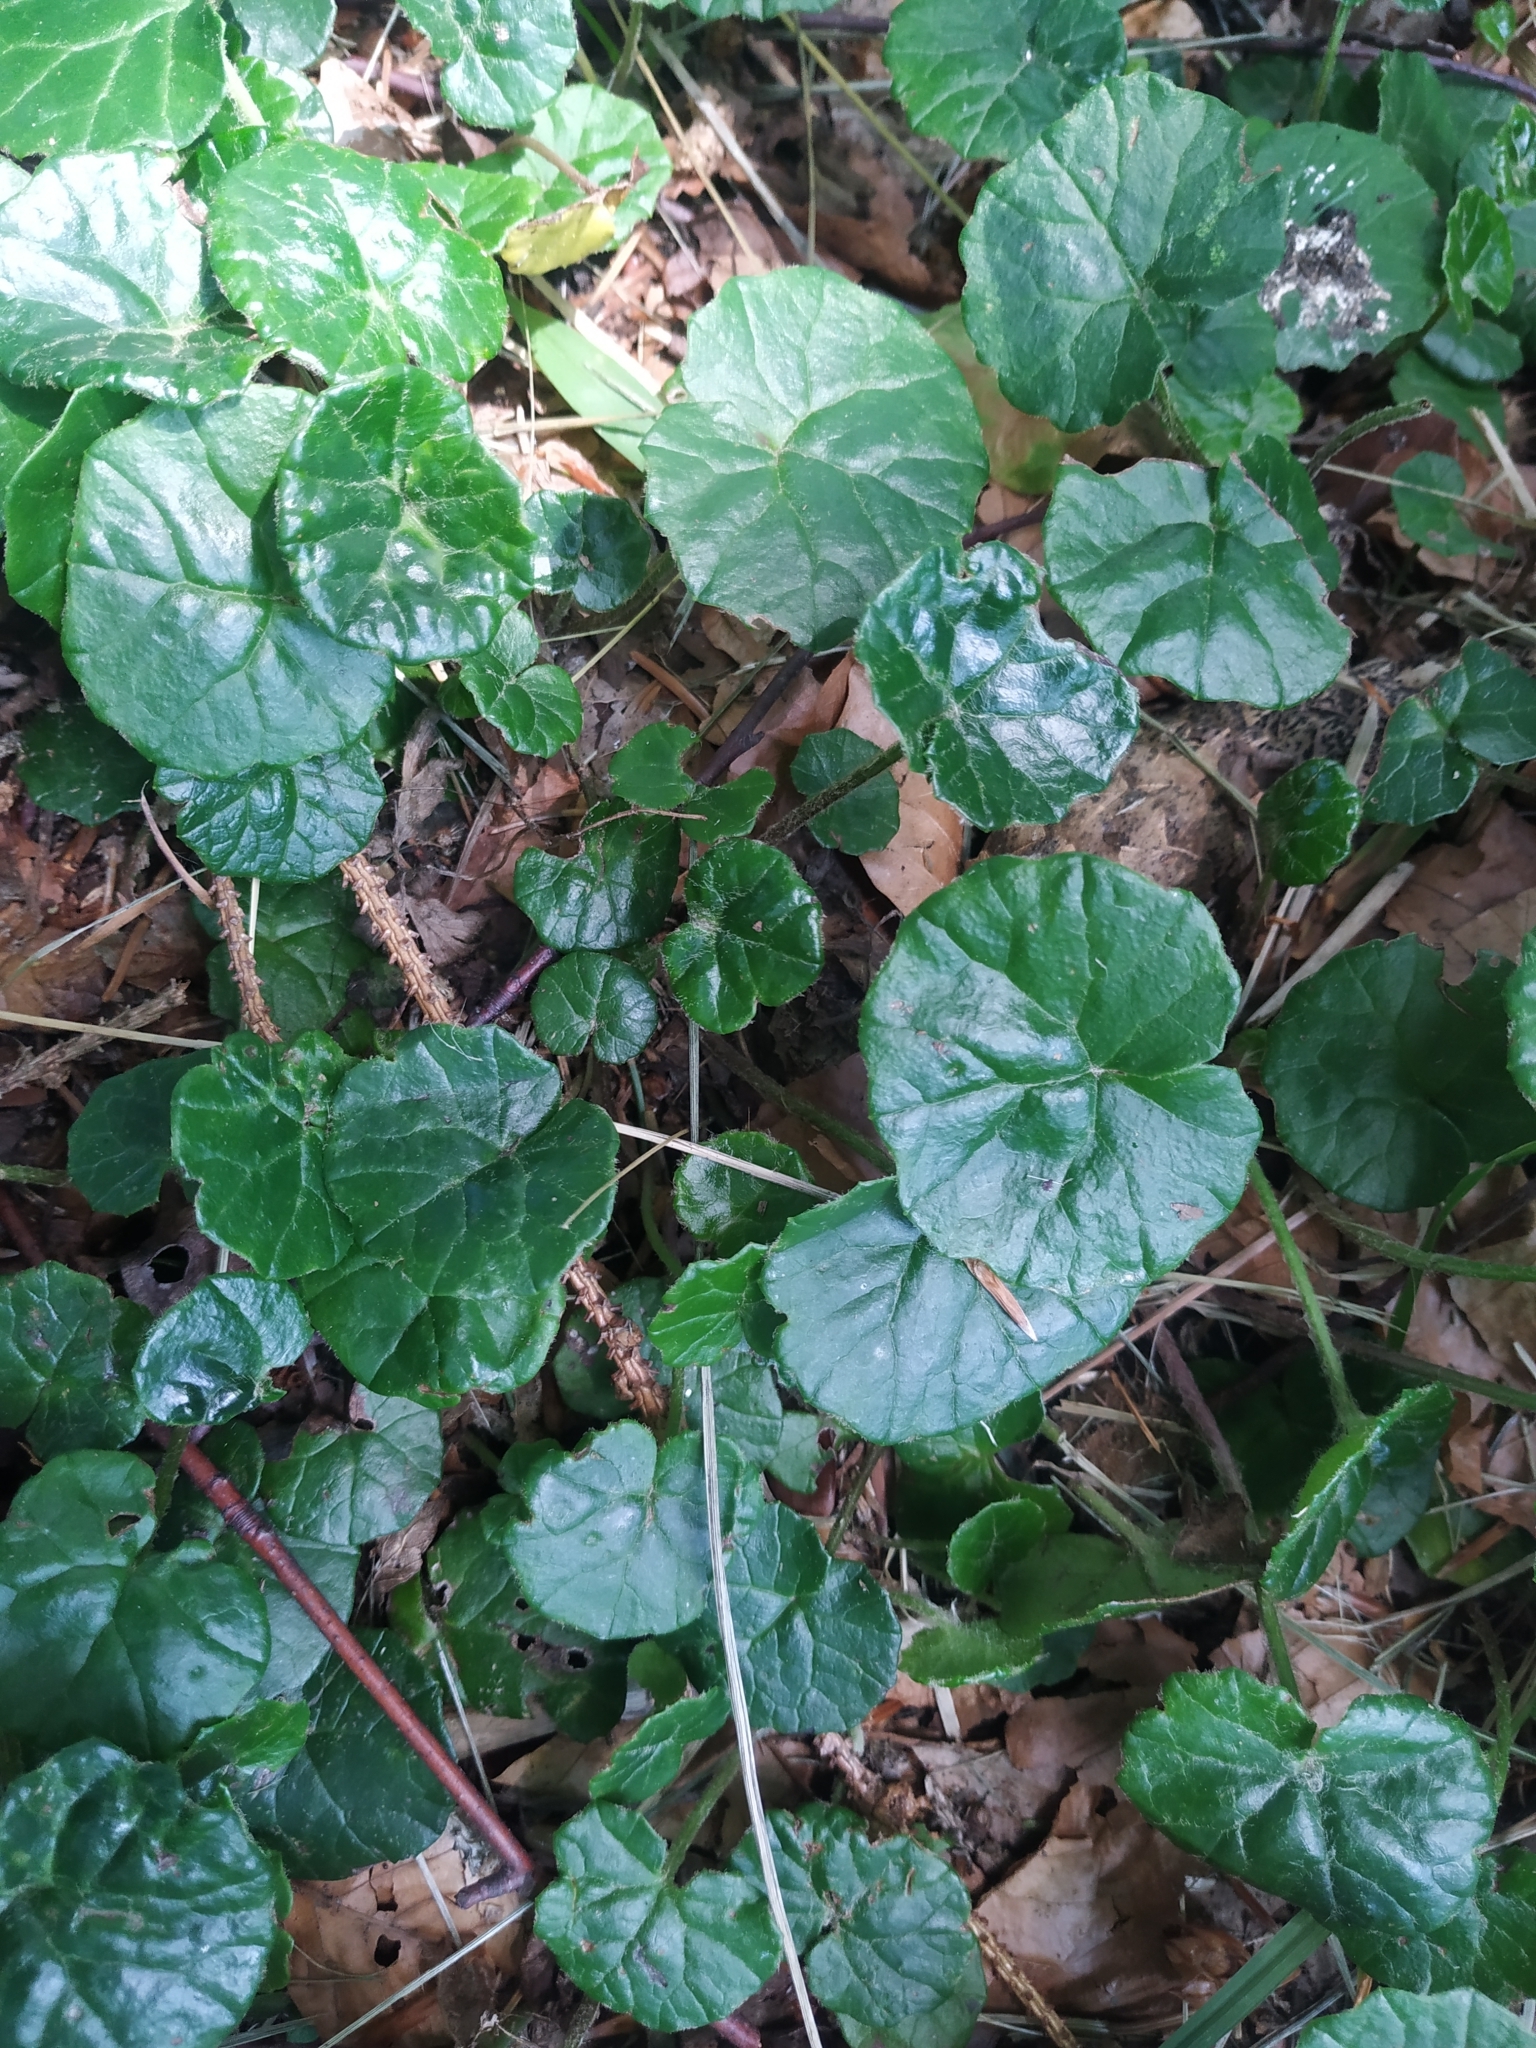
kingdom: Plantae
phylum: Tracheophyta
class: Magnoliopsida
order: Asterales
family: Asteraceae
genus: Homogyne
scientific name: Homogyne alpina
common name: Purple colt's-foot
